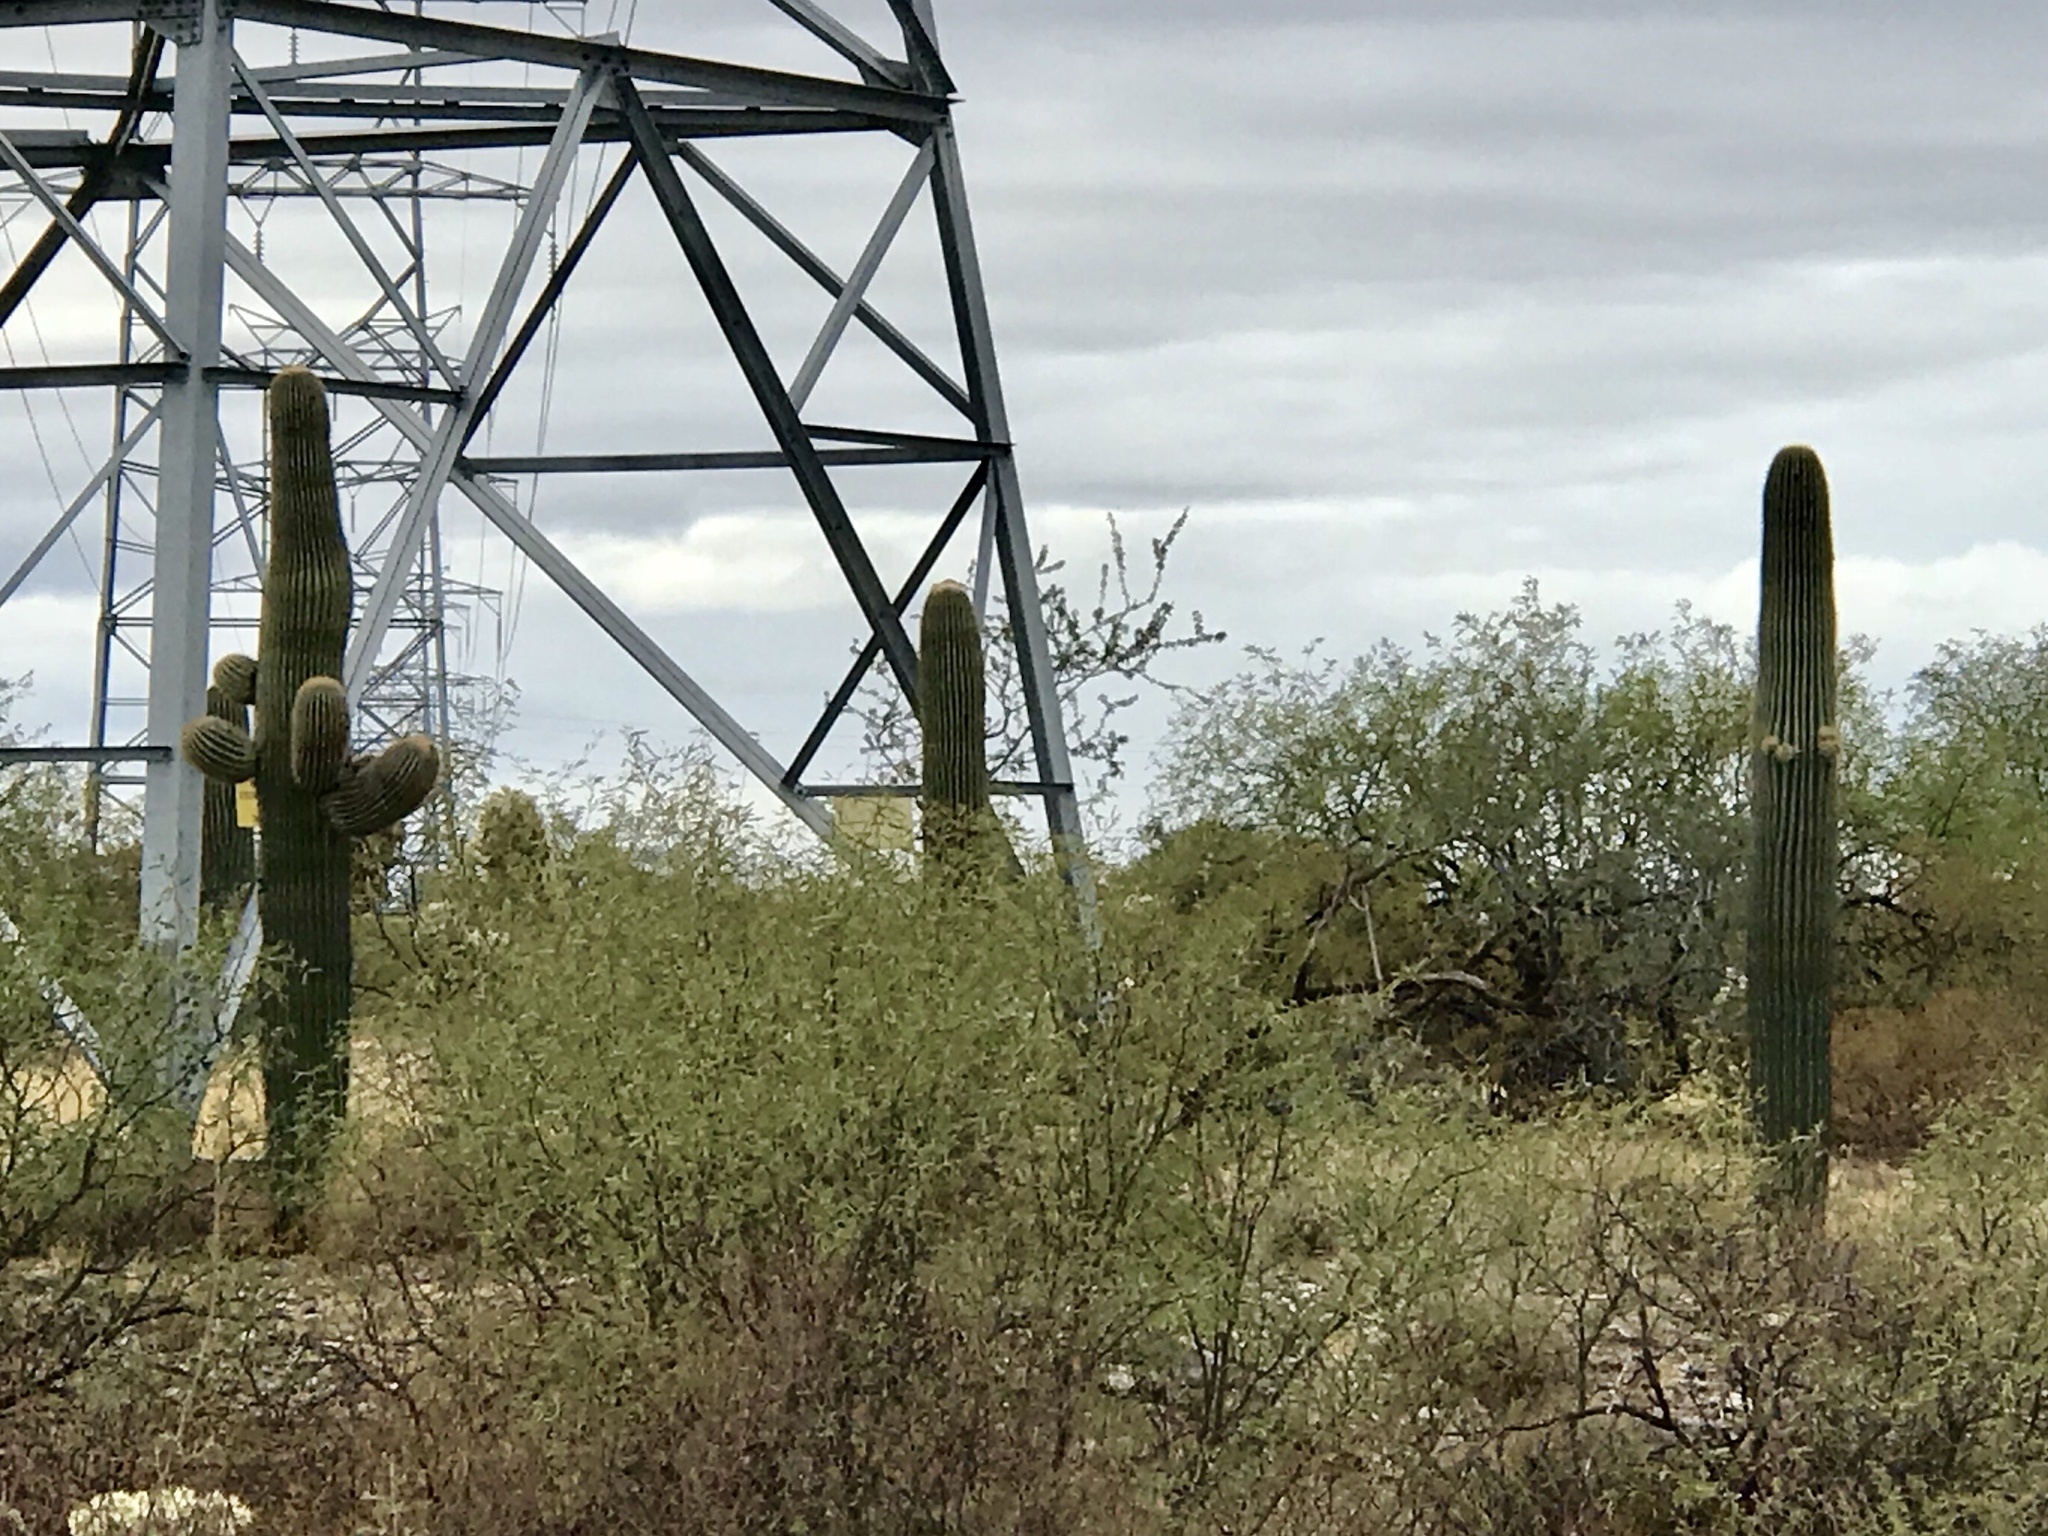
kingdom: Plantae
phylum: Tracheophyta
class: Magnoliopsida
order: Caryophyllales
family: Cactaceae
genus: Carnegiea
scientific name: Carnegiea gigantea
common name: Saguaro
